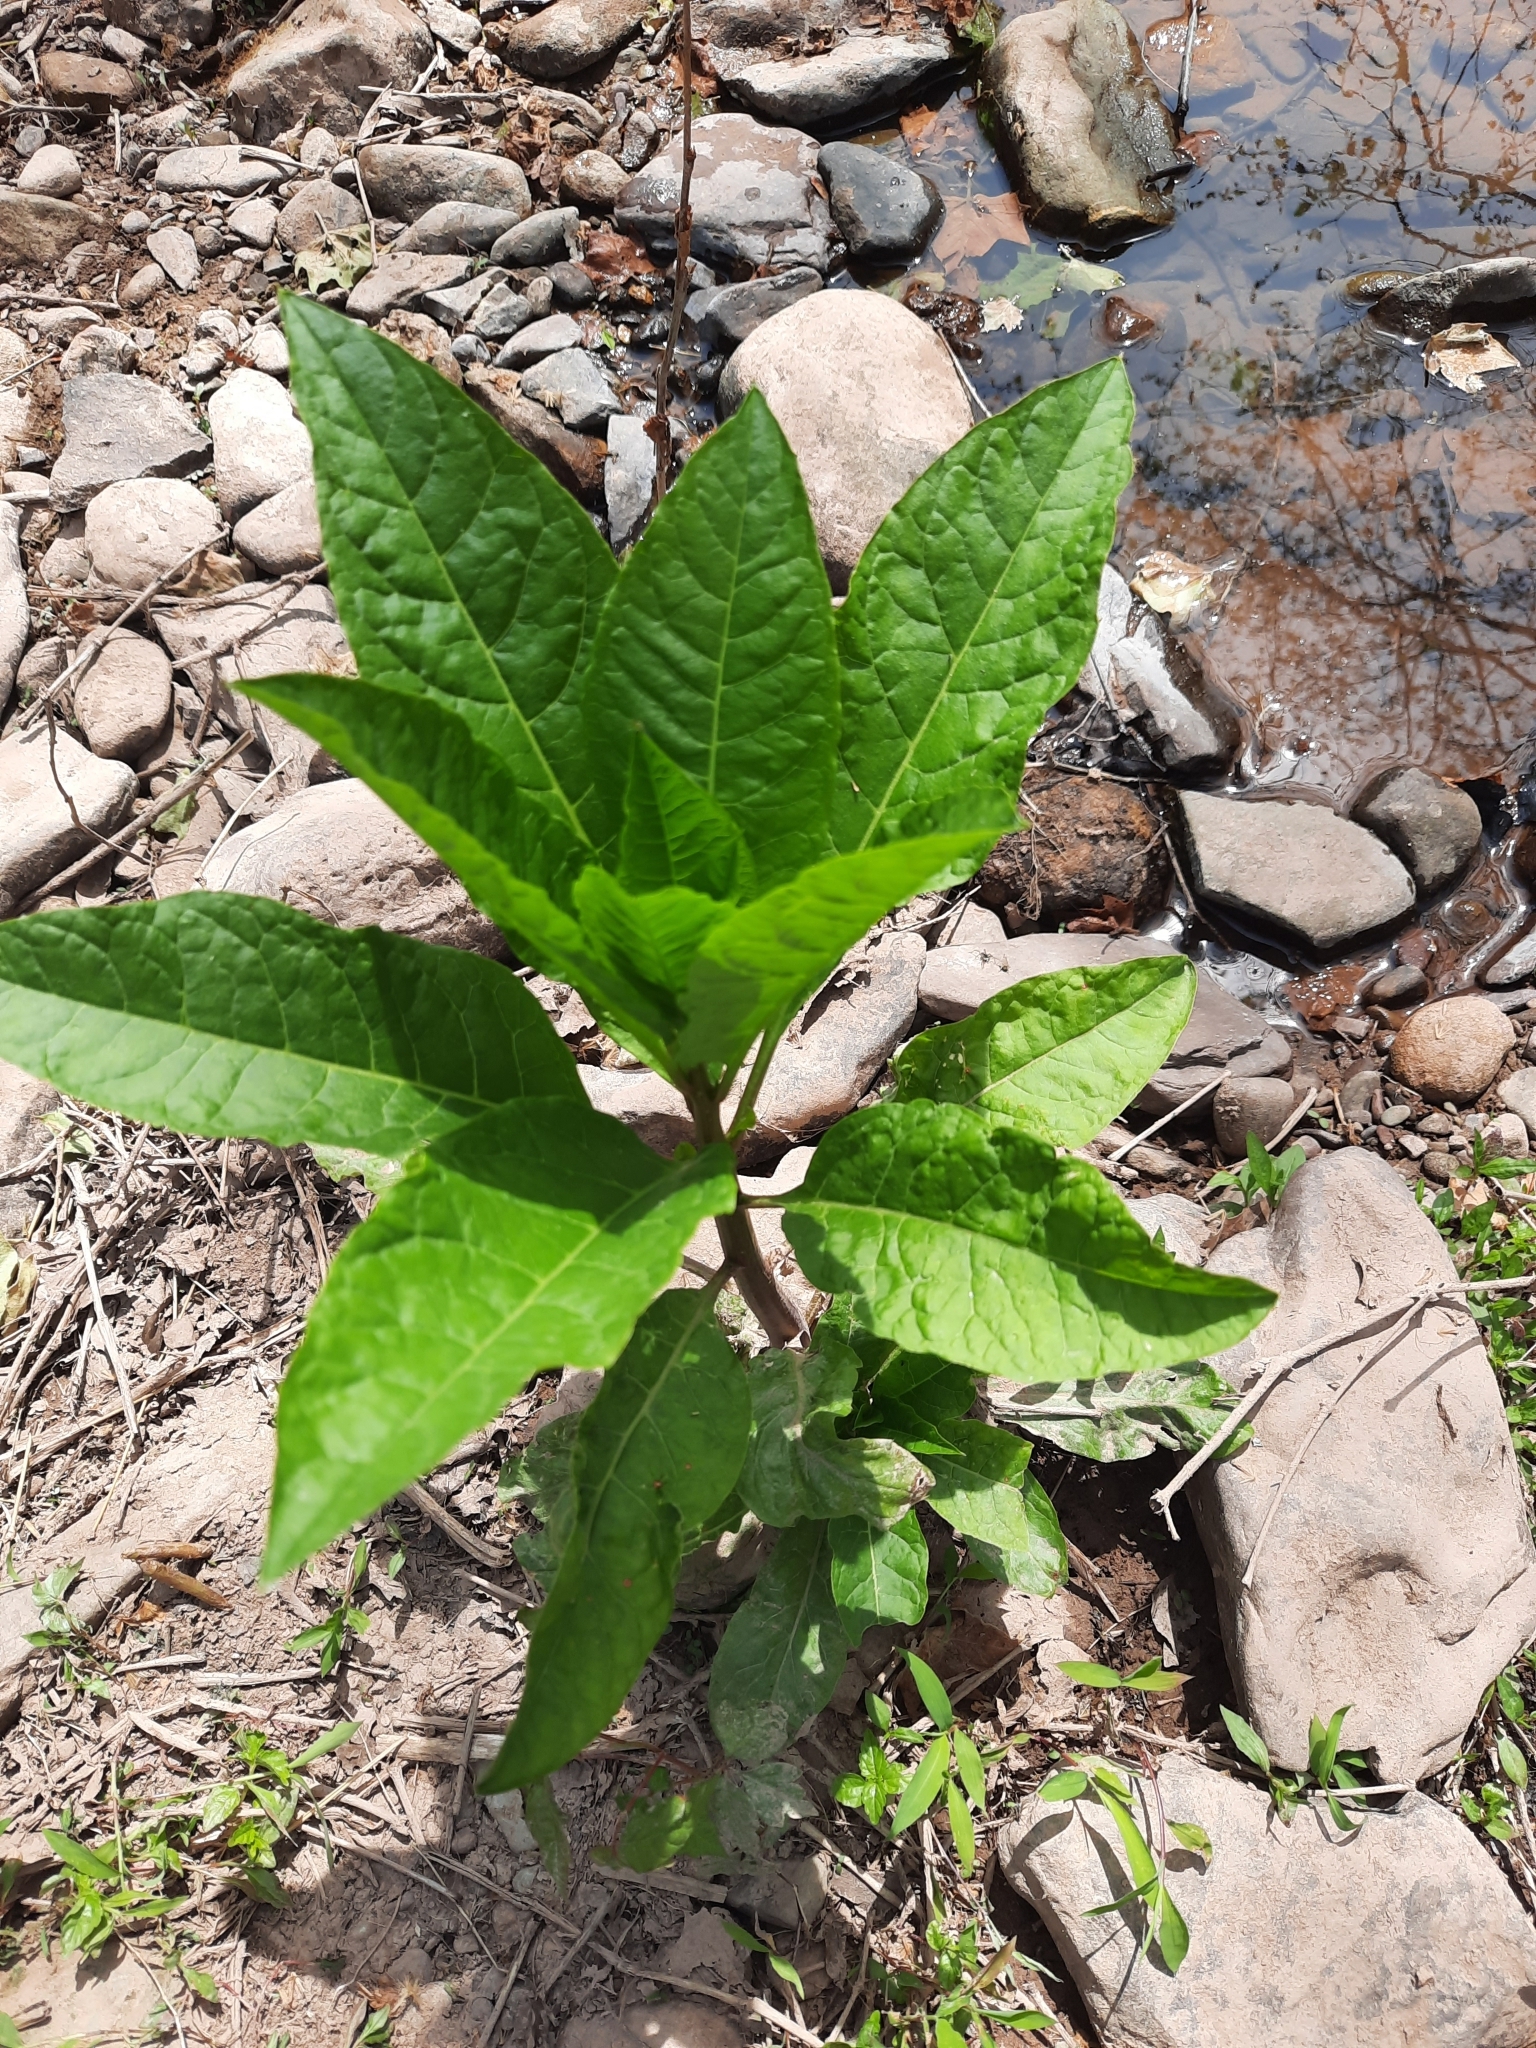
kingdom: Plantae
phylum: Tracheophyta
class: Magnoliopsida
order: Caryophyllales
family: Phytolaccaceae
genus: Phytolacca
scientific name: Phytolacca americana
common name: American pokeweed
